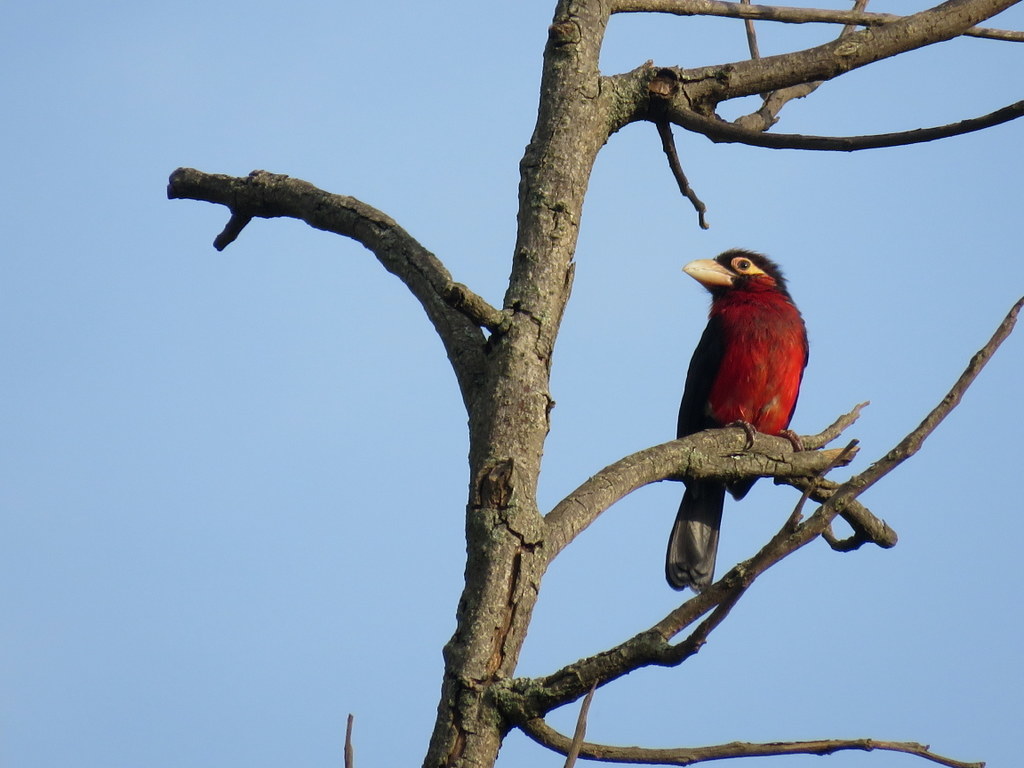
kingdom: Animalia
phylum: Chordata
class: Aves
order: Piciformes
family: Lybiidae
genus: Lybius
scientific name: Lybius bidentatus
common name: Double-toothed barbet
